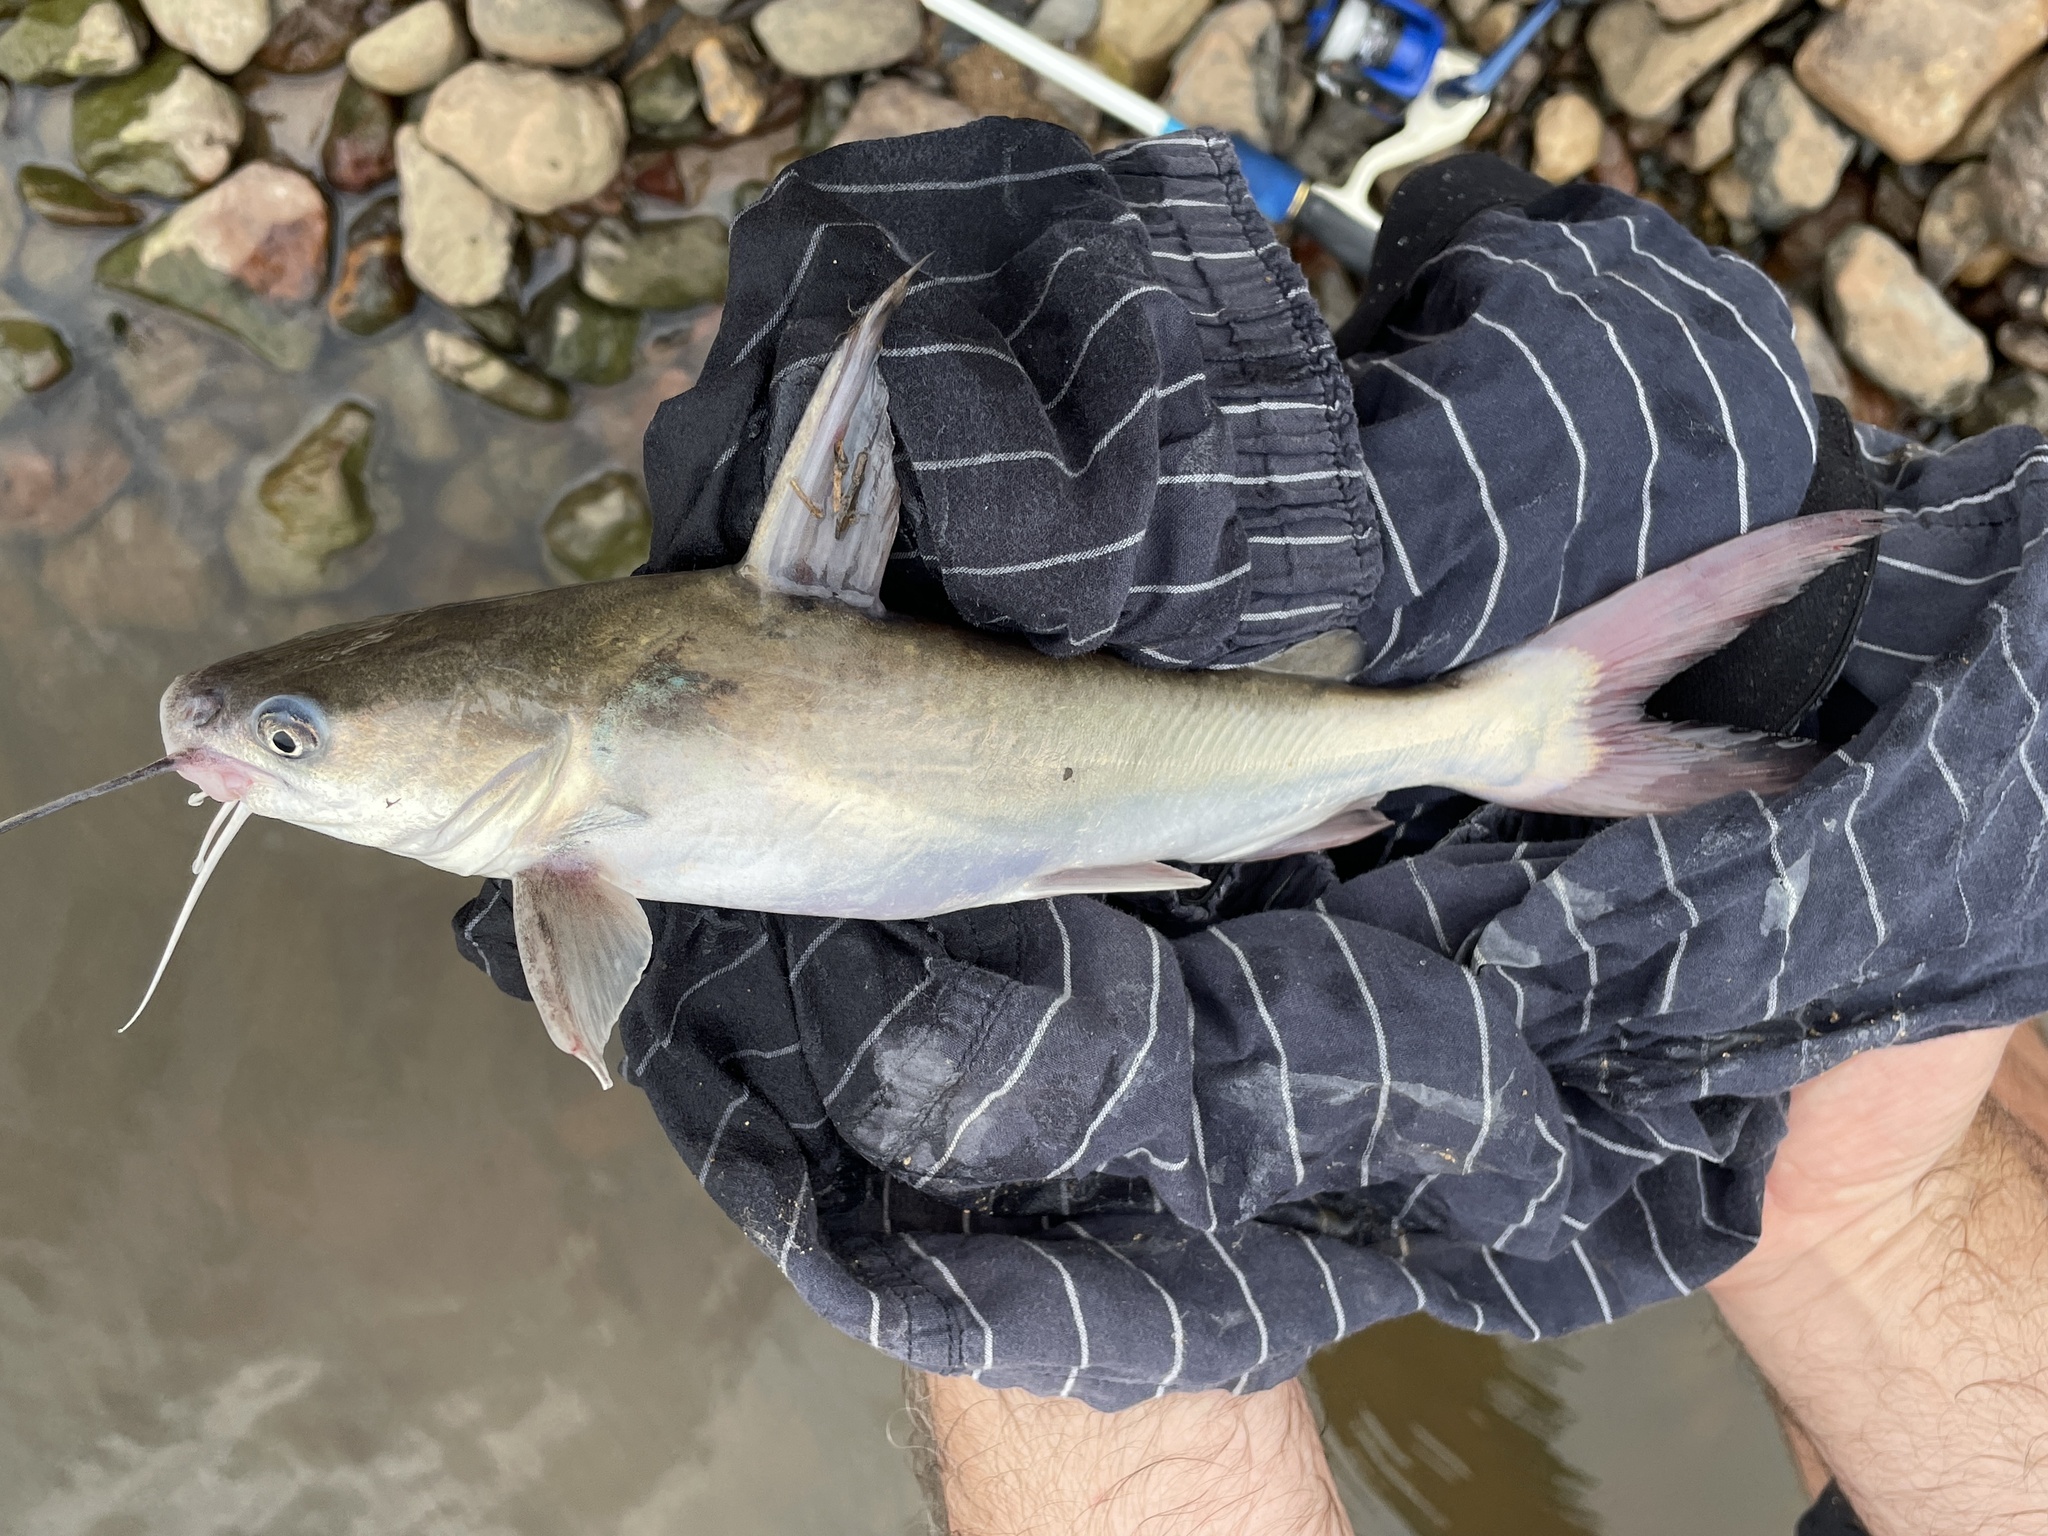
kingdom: Animalia
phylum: Chordata
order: Siluriformes
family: Ariidae
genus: Neoarius
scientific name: Neoarius graeffei
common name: Blue salmon catfish
